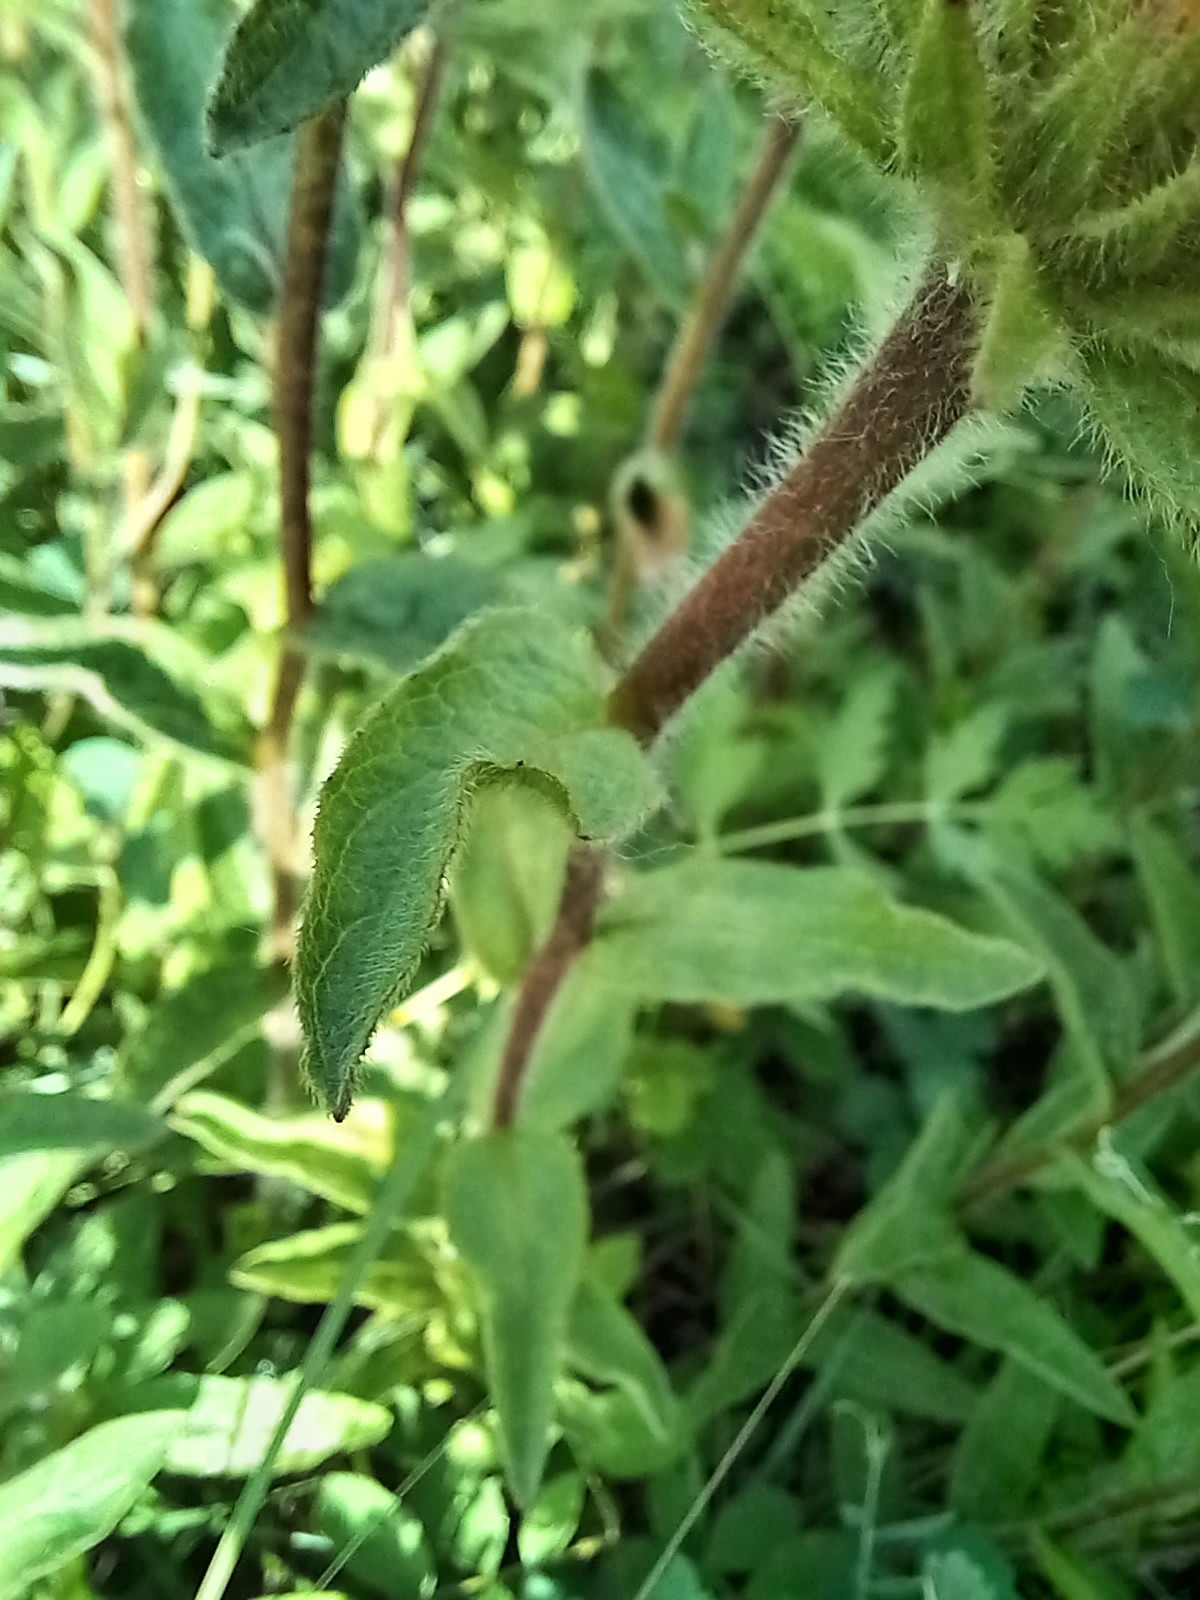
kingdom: Plantae
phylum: Tracheophyta
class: Magnoliopsida
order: Asterales
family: Asteraceae
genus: Pentanema
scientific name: Pentanema hirtum
